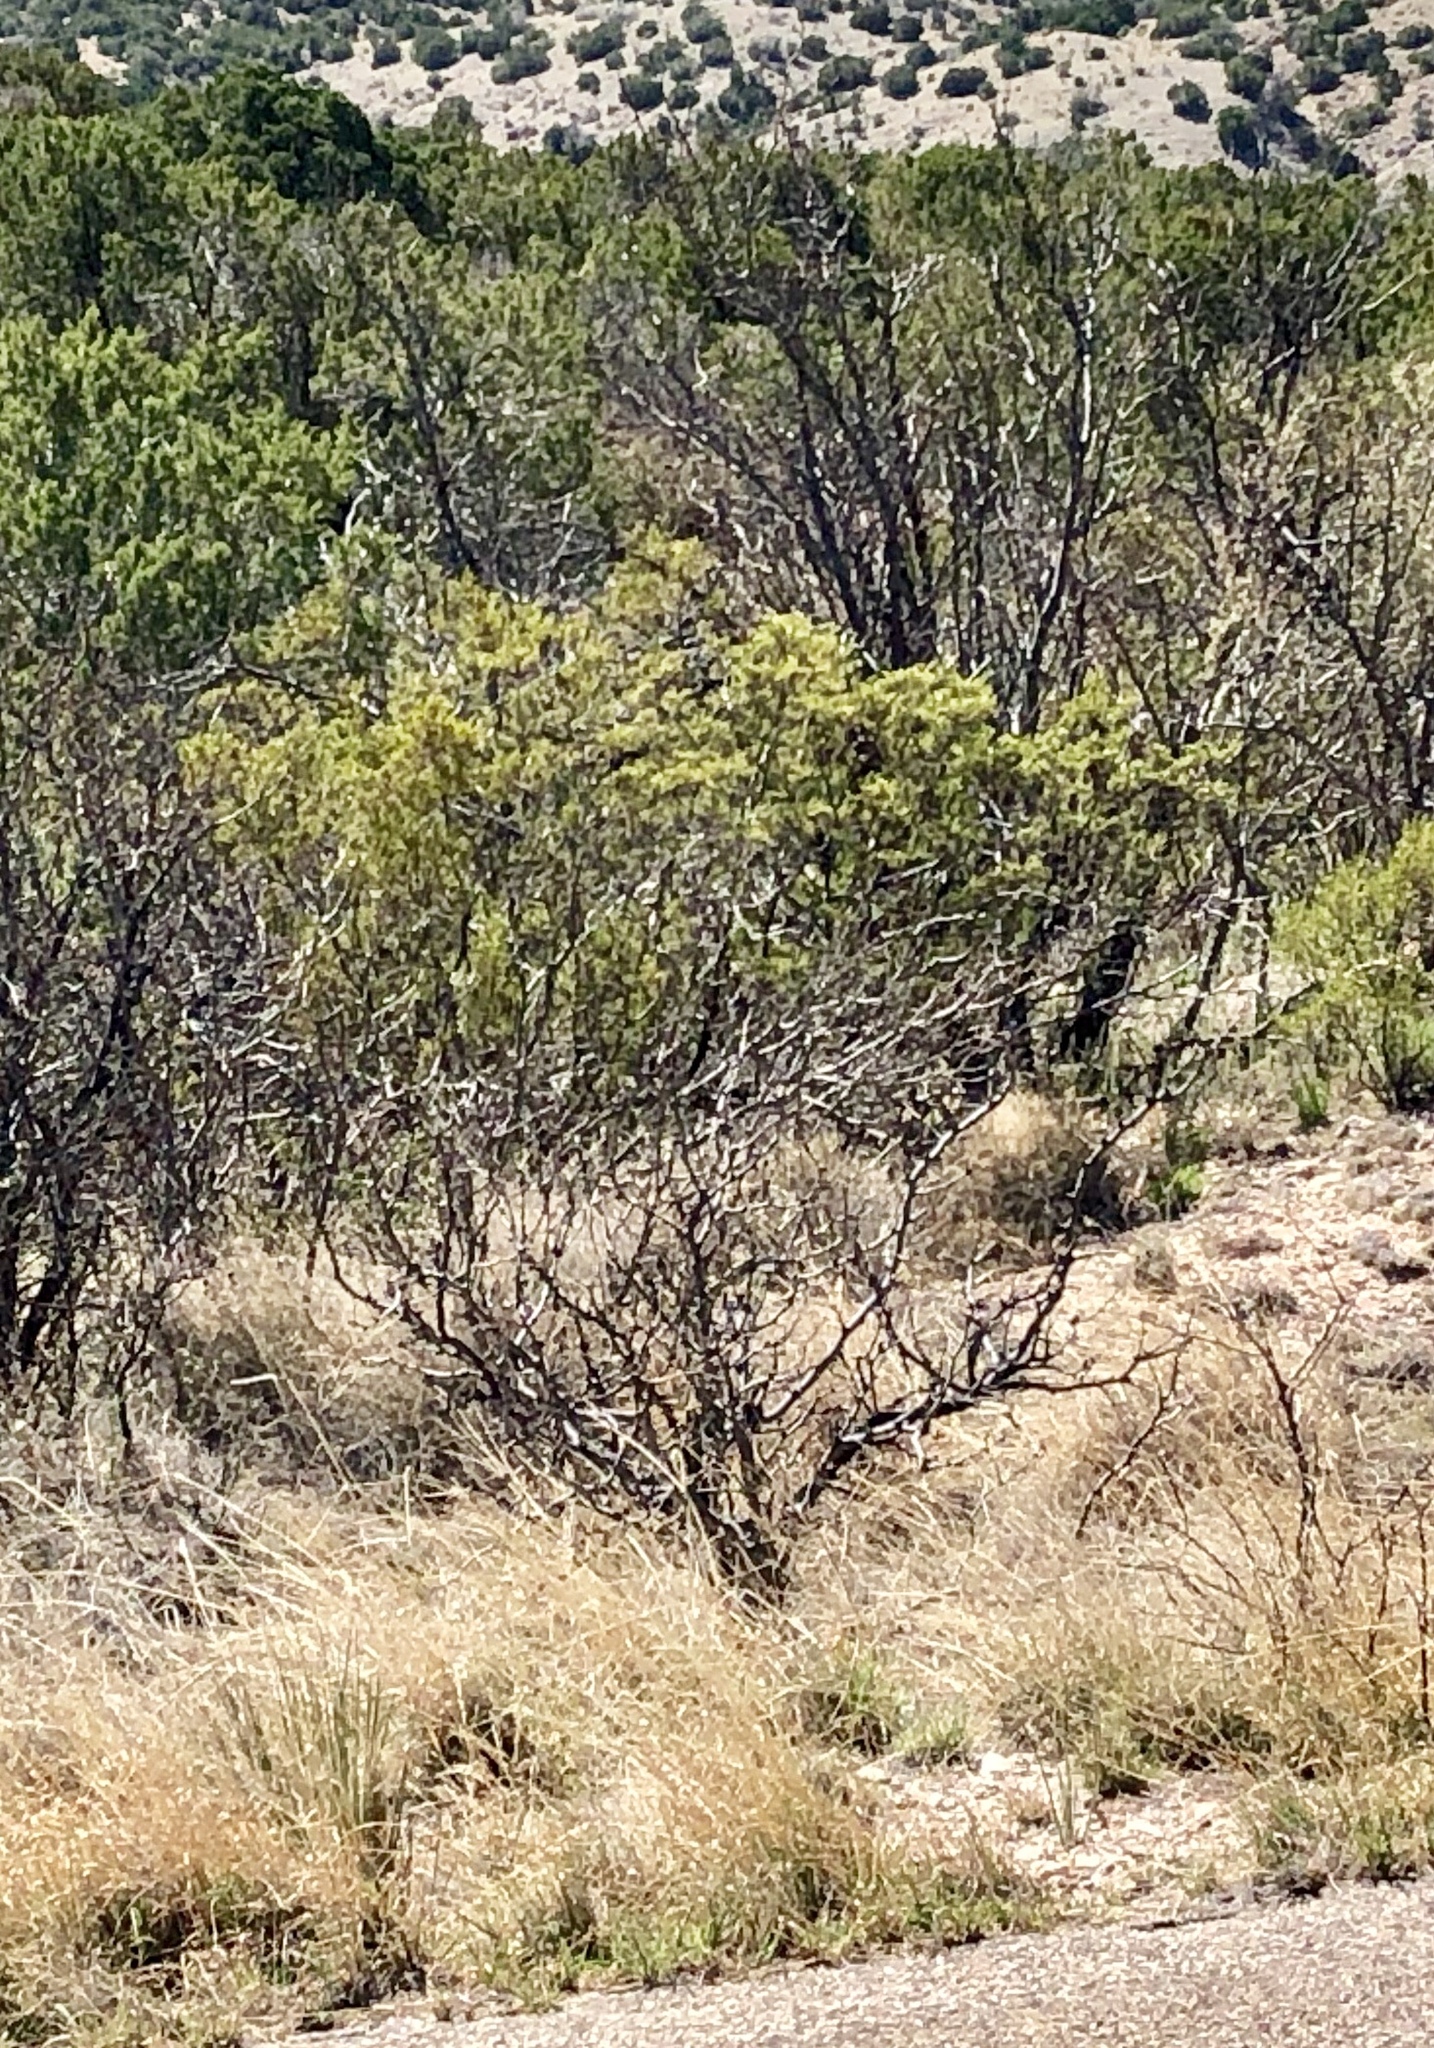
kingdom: Plantae
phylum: Tracheophyta
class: Magnoliopsida
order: Zygophyllales
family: Zygophyllaceae
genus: Larrea
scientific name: Larrea tridentata
